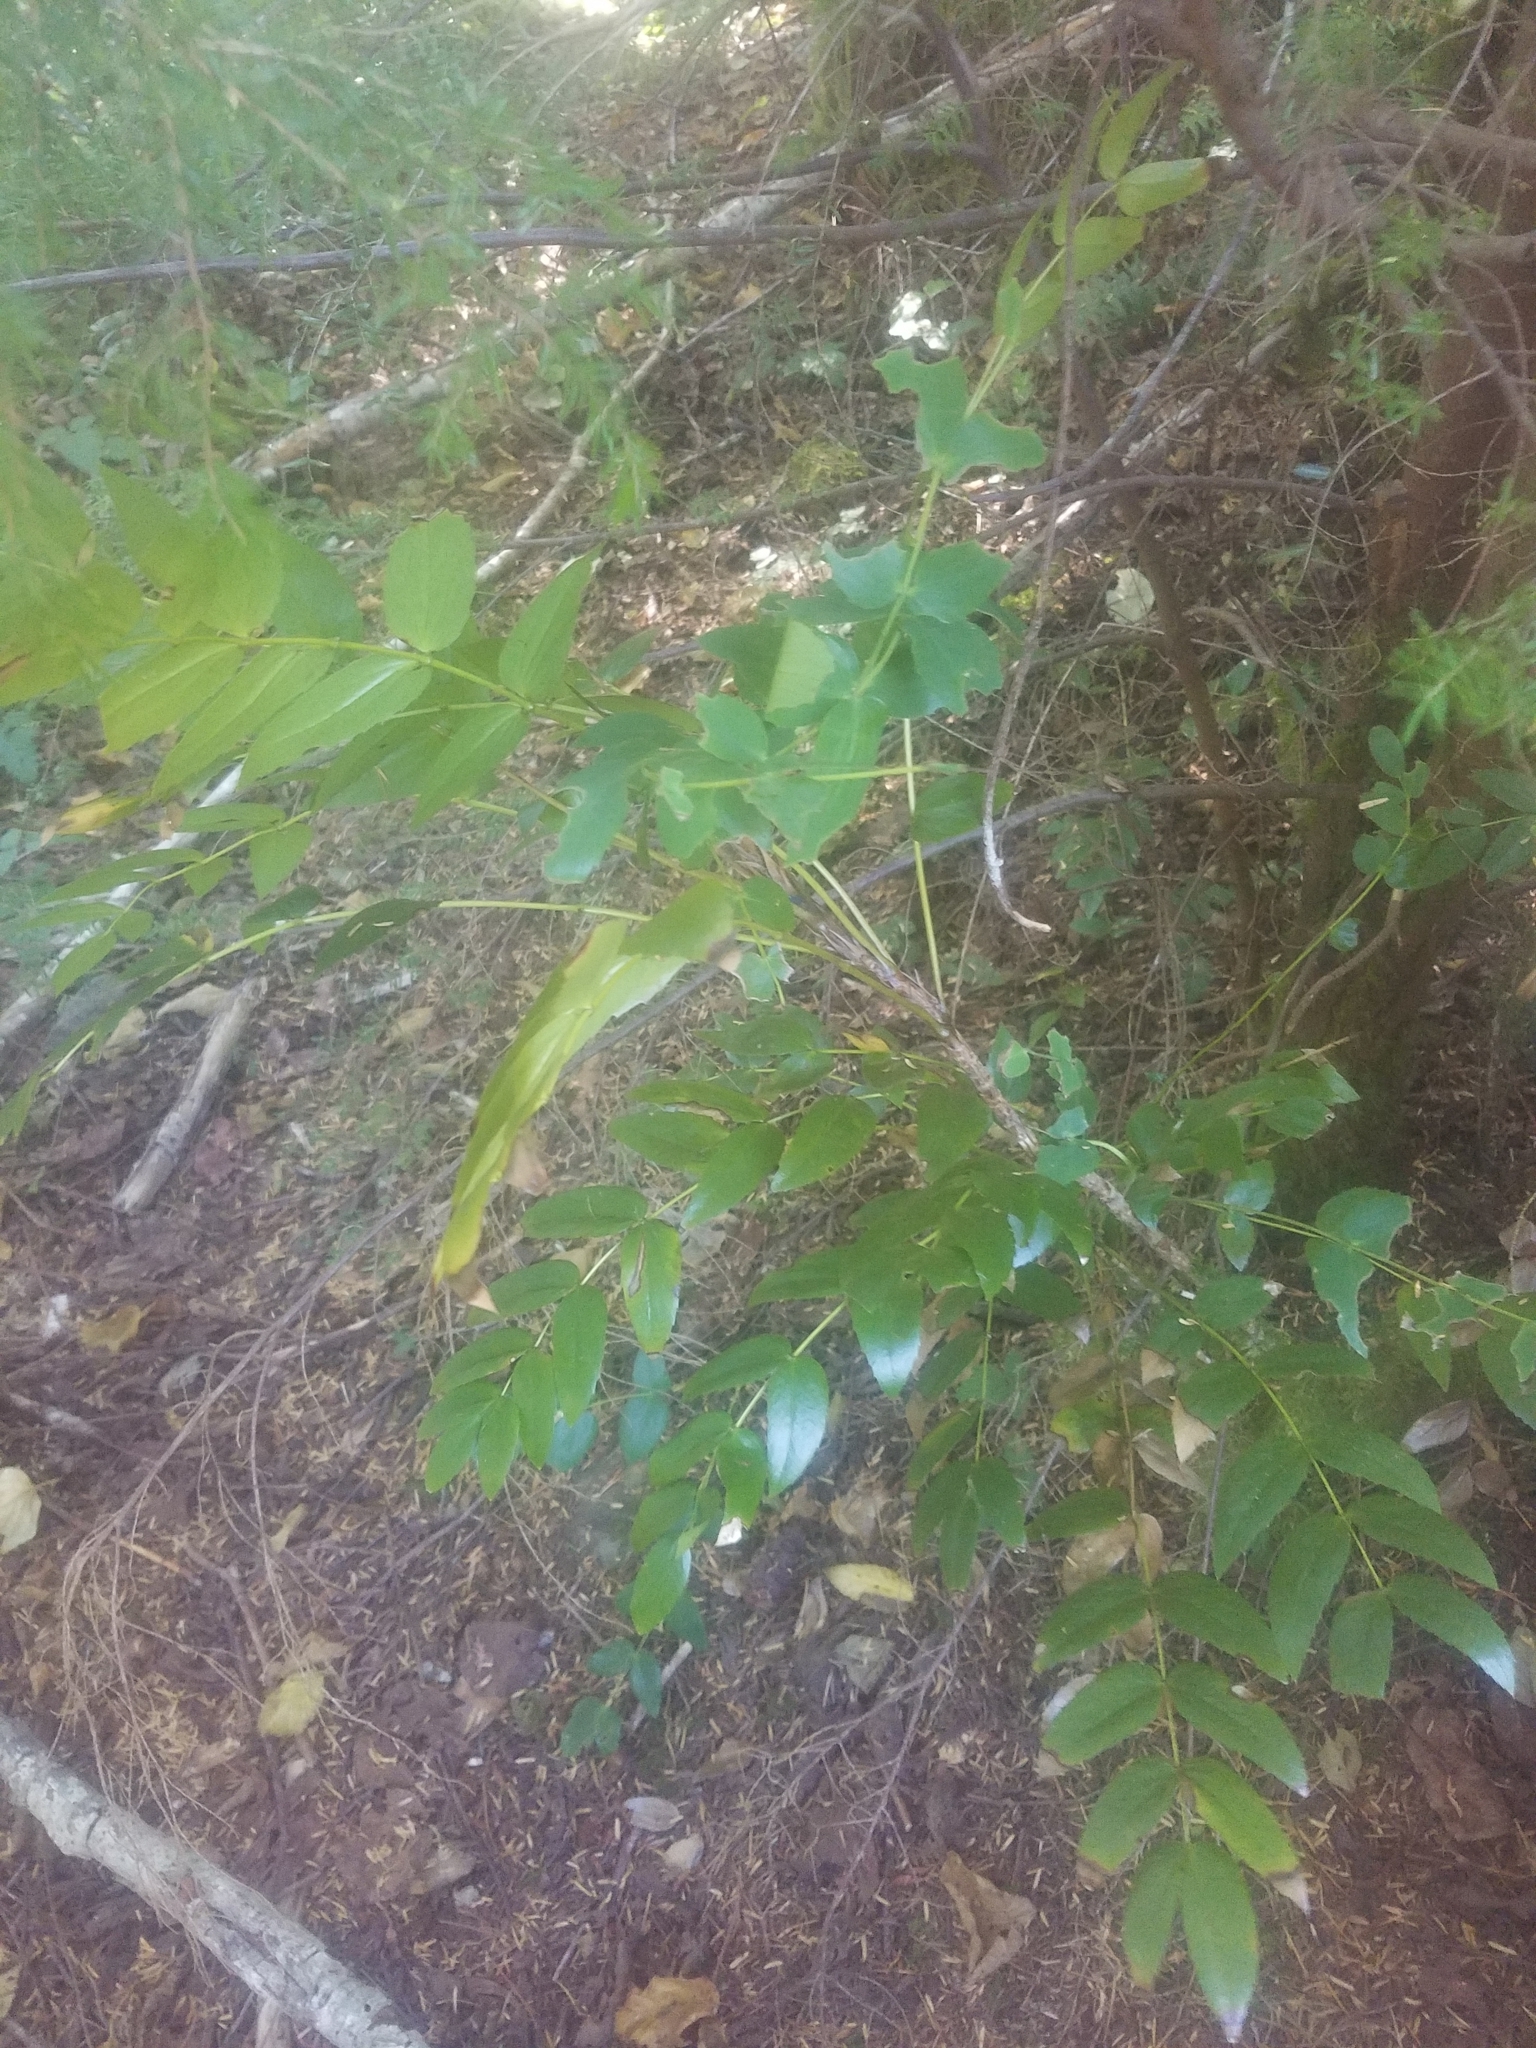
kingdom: Plantae
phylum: Tracheophyta
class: Magnoliopsida
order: Ranunculales
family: Berberidaceae
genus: Mahonia
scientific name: Mahonia nervosa
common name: Cascade oregon-grape
